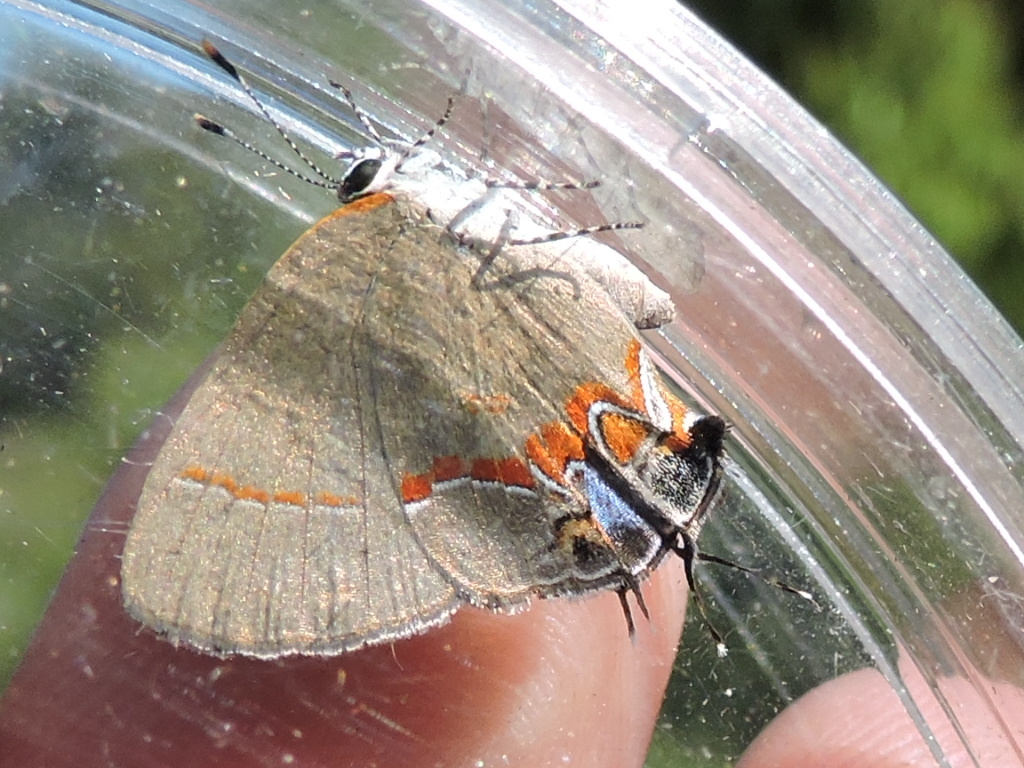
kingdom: Animalia
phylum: Arthropoda
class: Insecta
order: Lepidoptera
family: Lycaenidae
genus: Calycopis
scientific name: Calycopis cecrops
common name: Red-banded hairstreak
